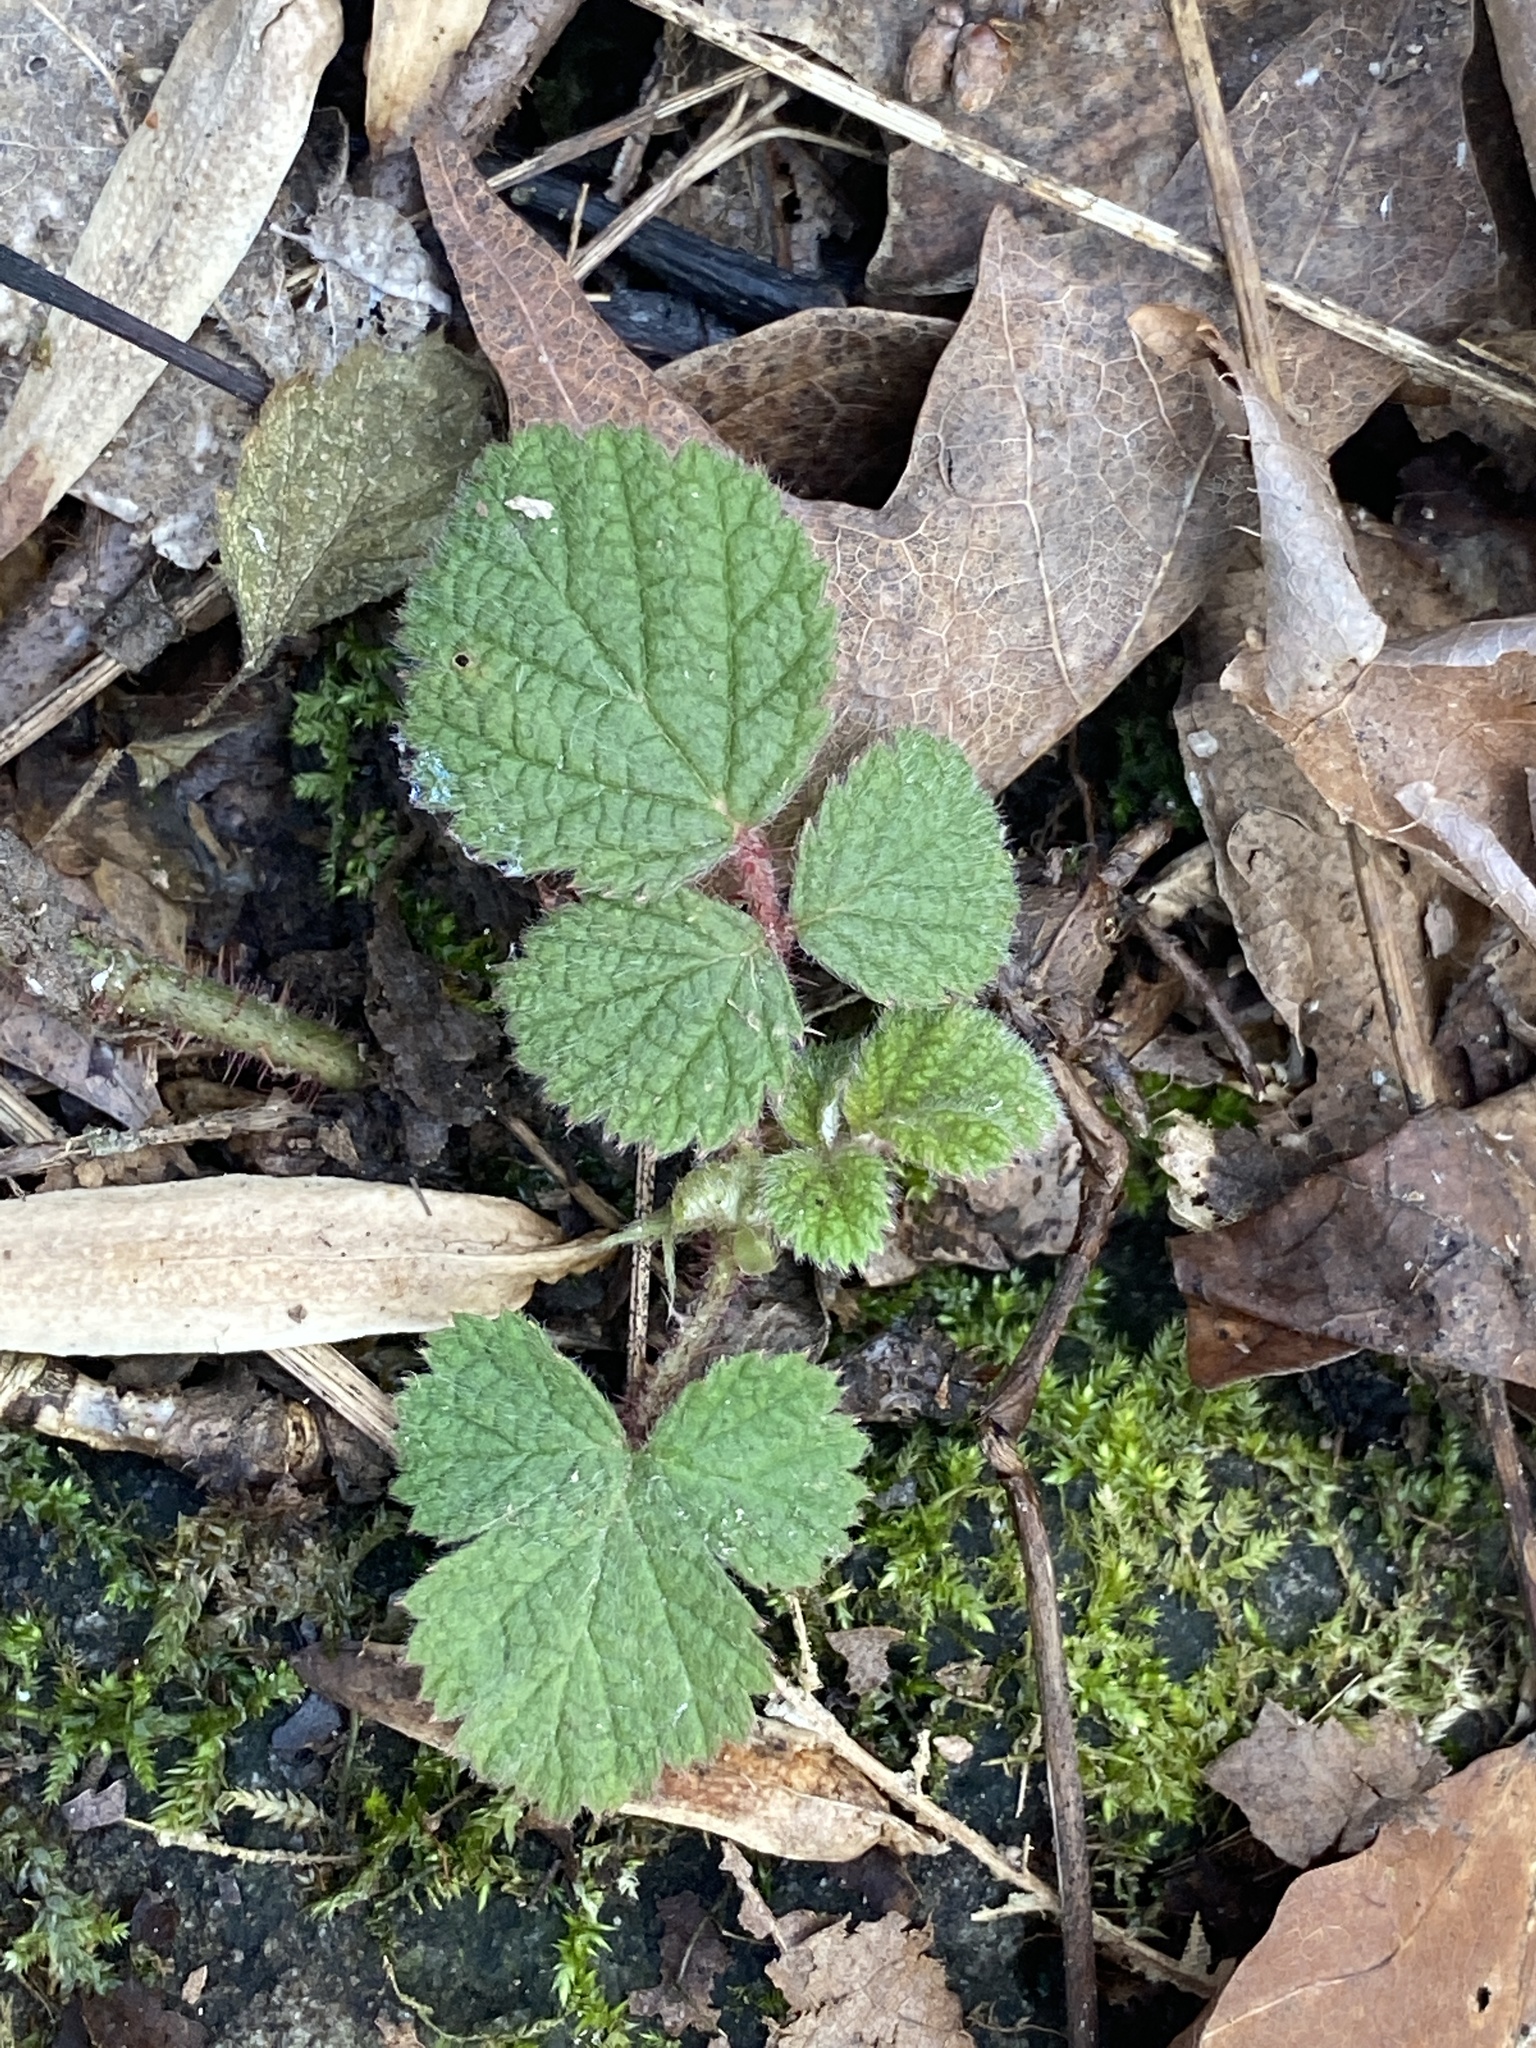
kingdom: Plantae
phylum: Tracheophyta
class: Magnoliopsida
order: Rosales
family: Rosaceae
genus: Rubus
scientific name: Rubus phoenicolasius
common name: Japanese wineberry
